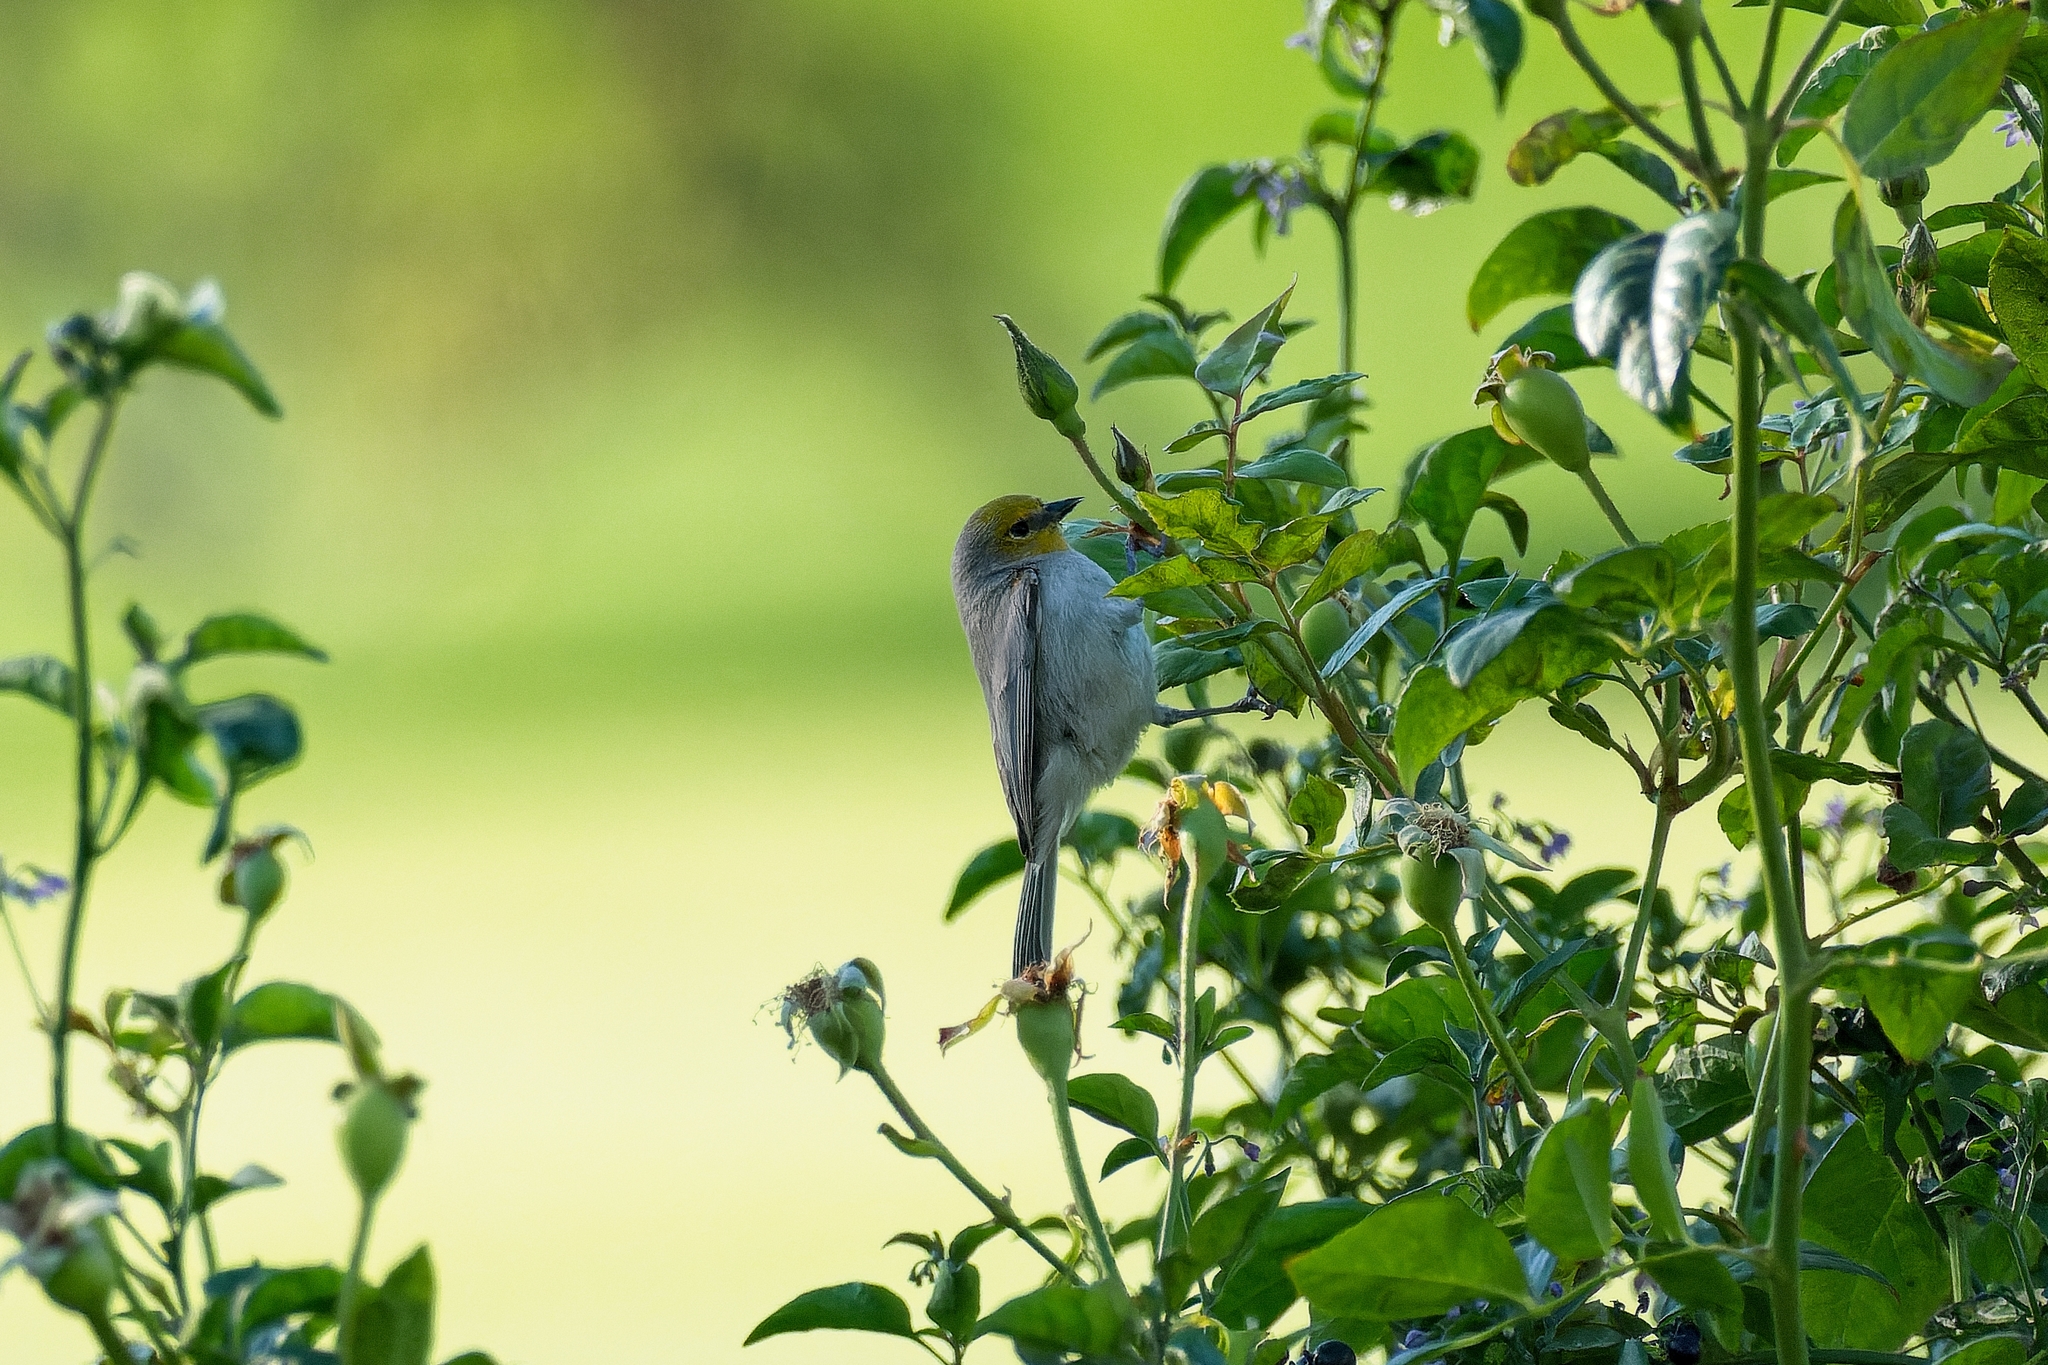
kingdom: Animalia
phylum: Chordata
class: Aves
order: Passeriformes
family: Remizidae
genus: Auriparus
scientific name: Auriparus flaviceps
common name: Verdin
